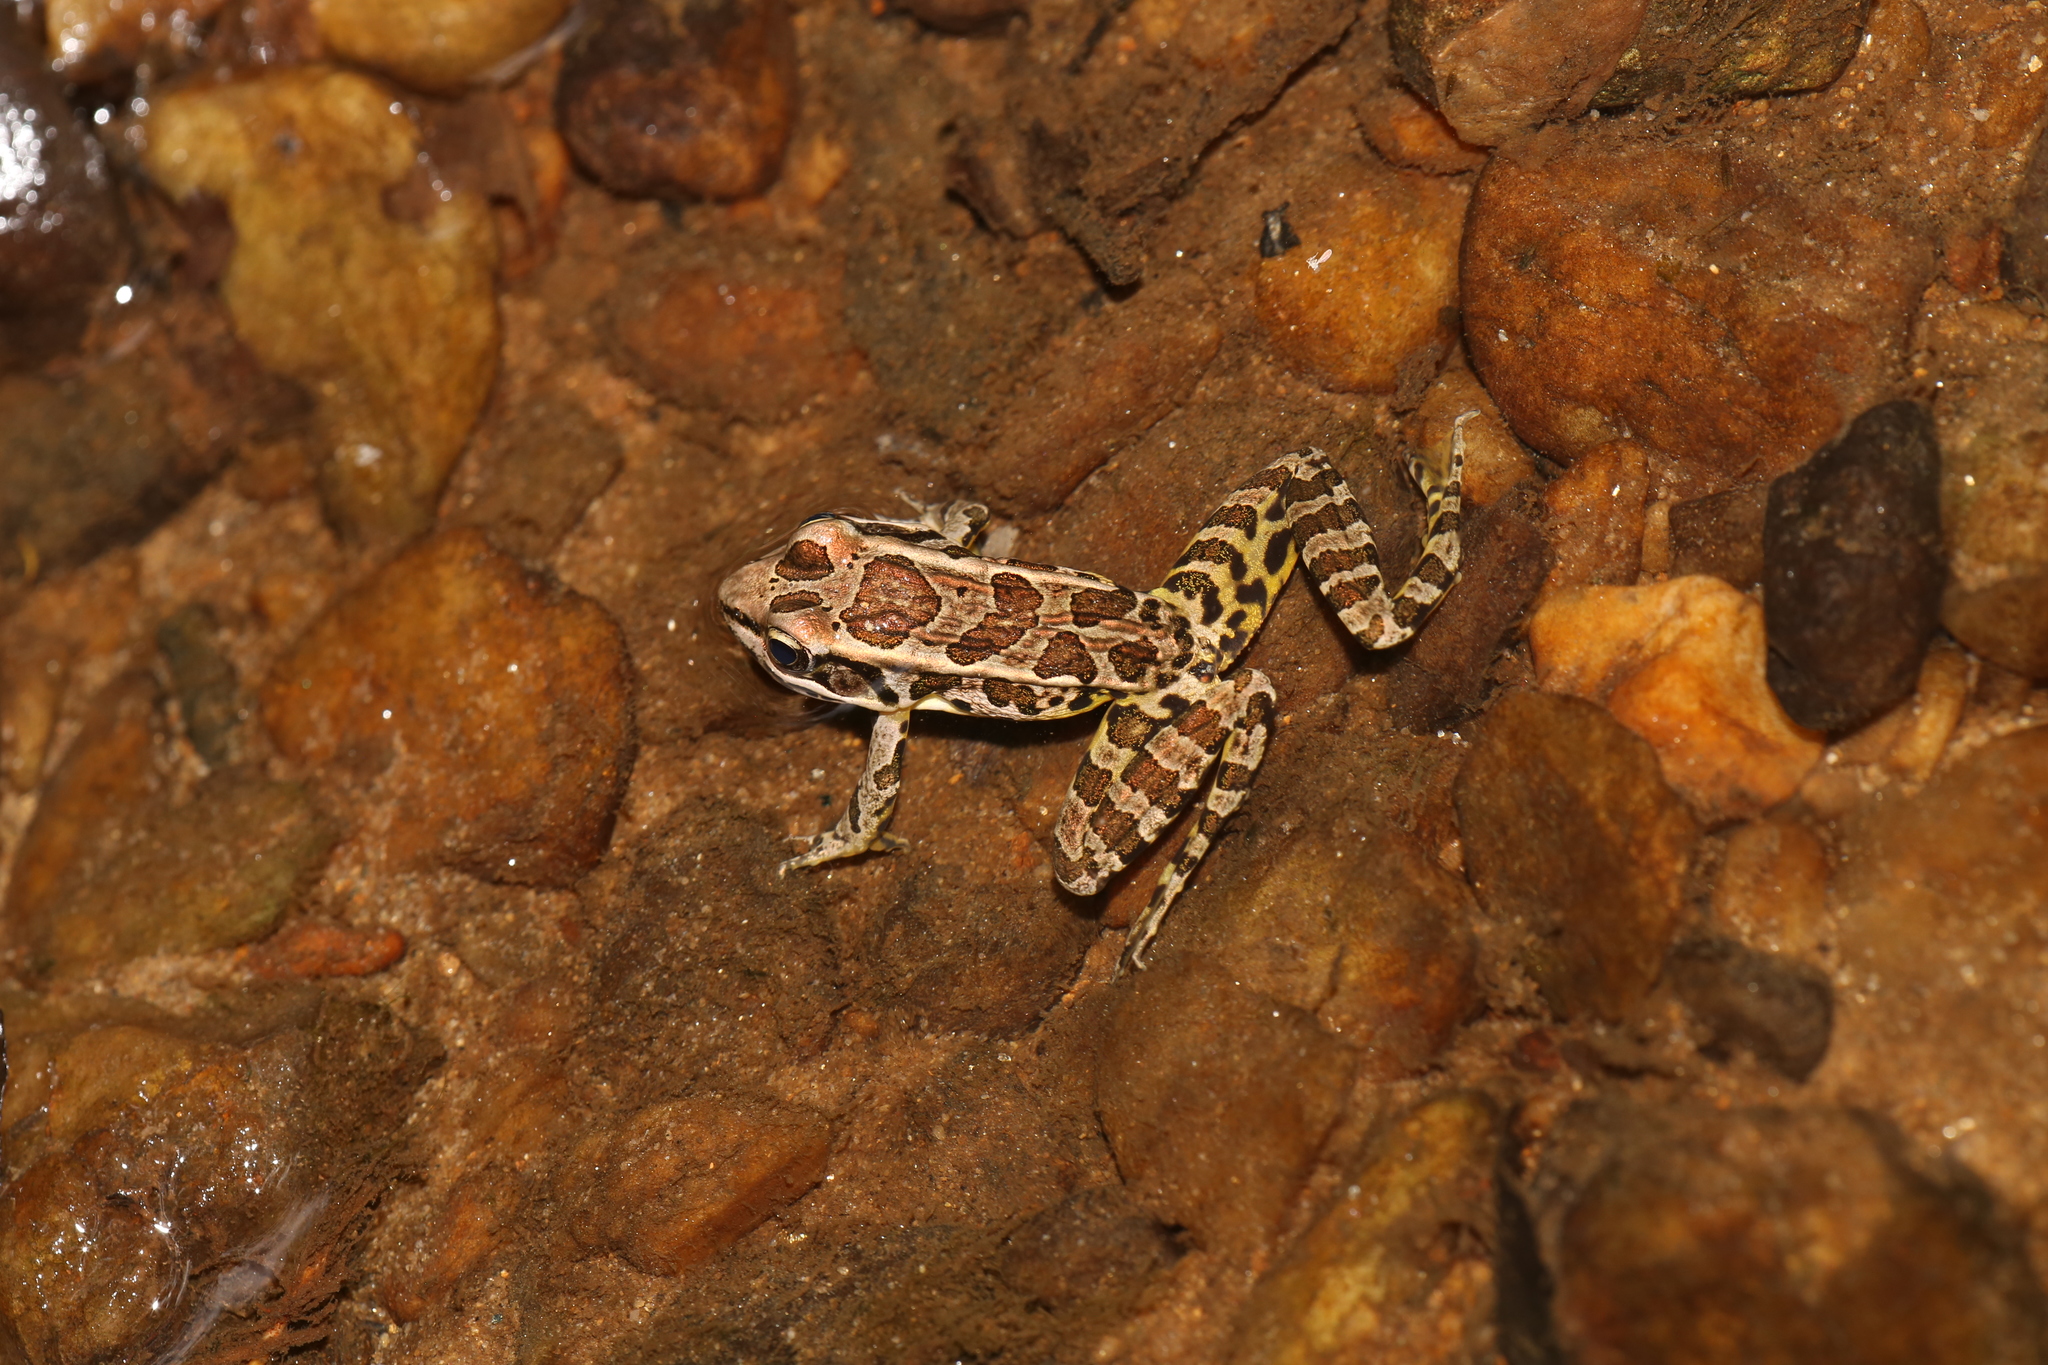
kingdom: Animalia
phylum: Chordata
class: Amphibia
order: Anura
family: Ranidae
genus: Lithobates
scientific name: Lithobates palustris
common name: Pickerel frog
